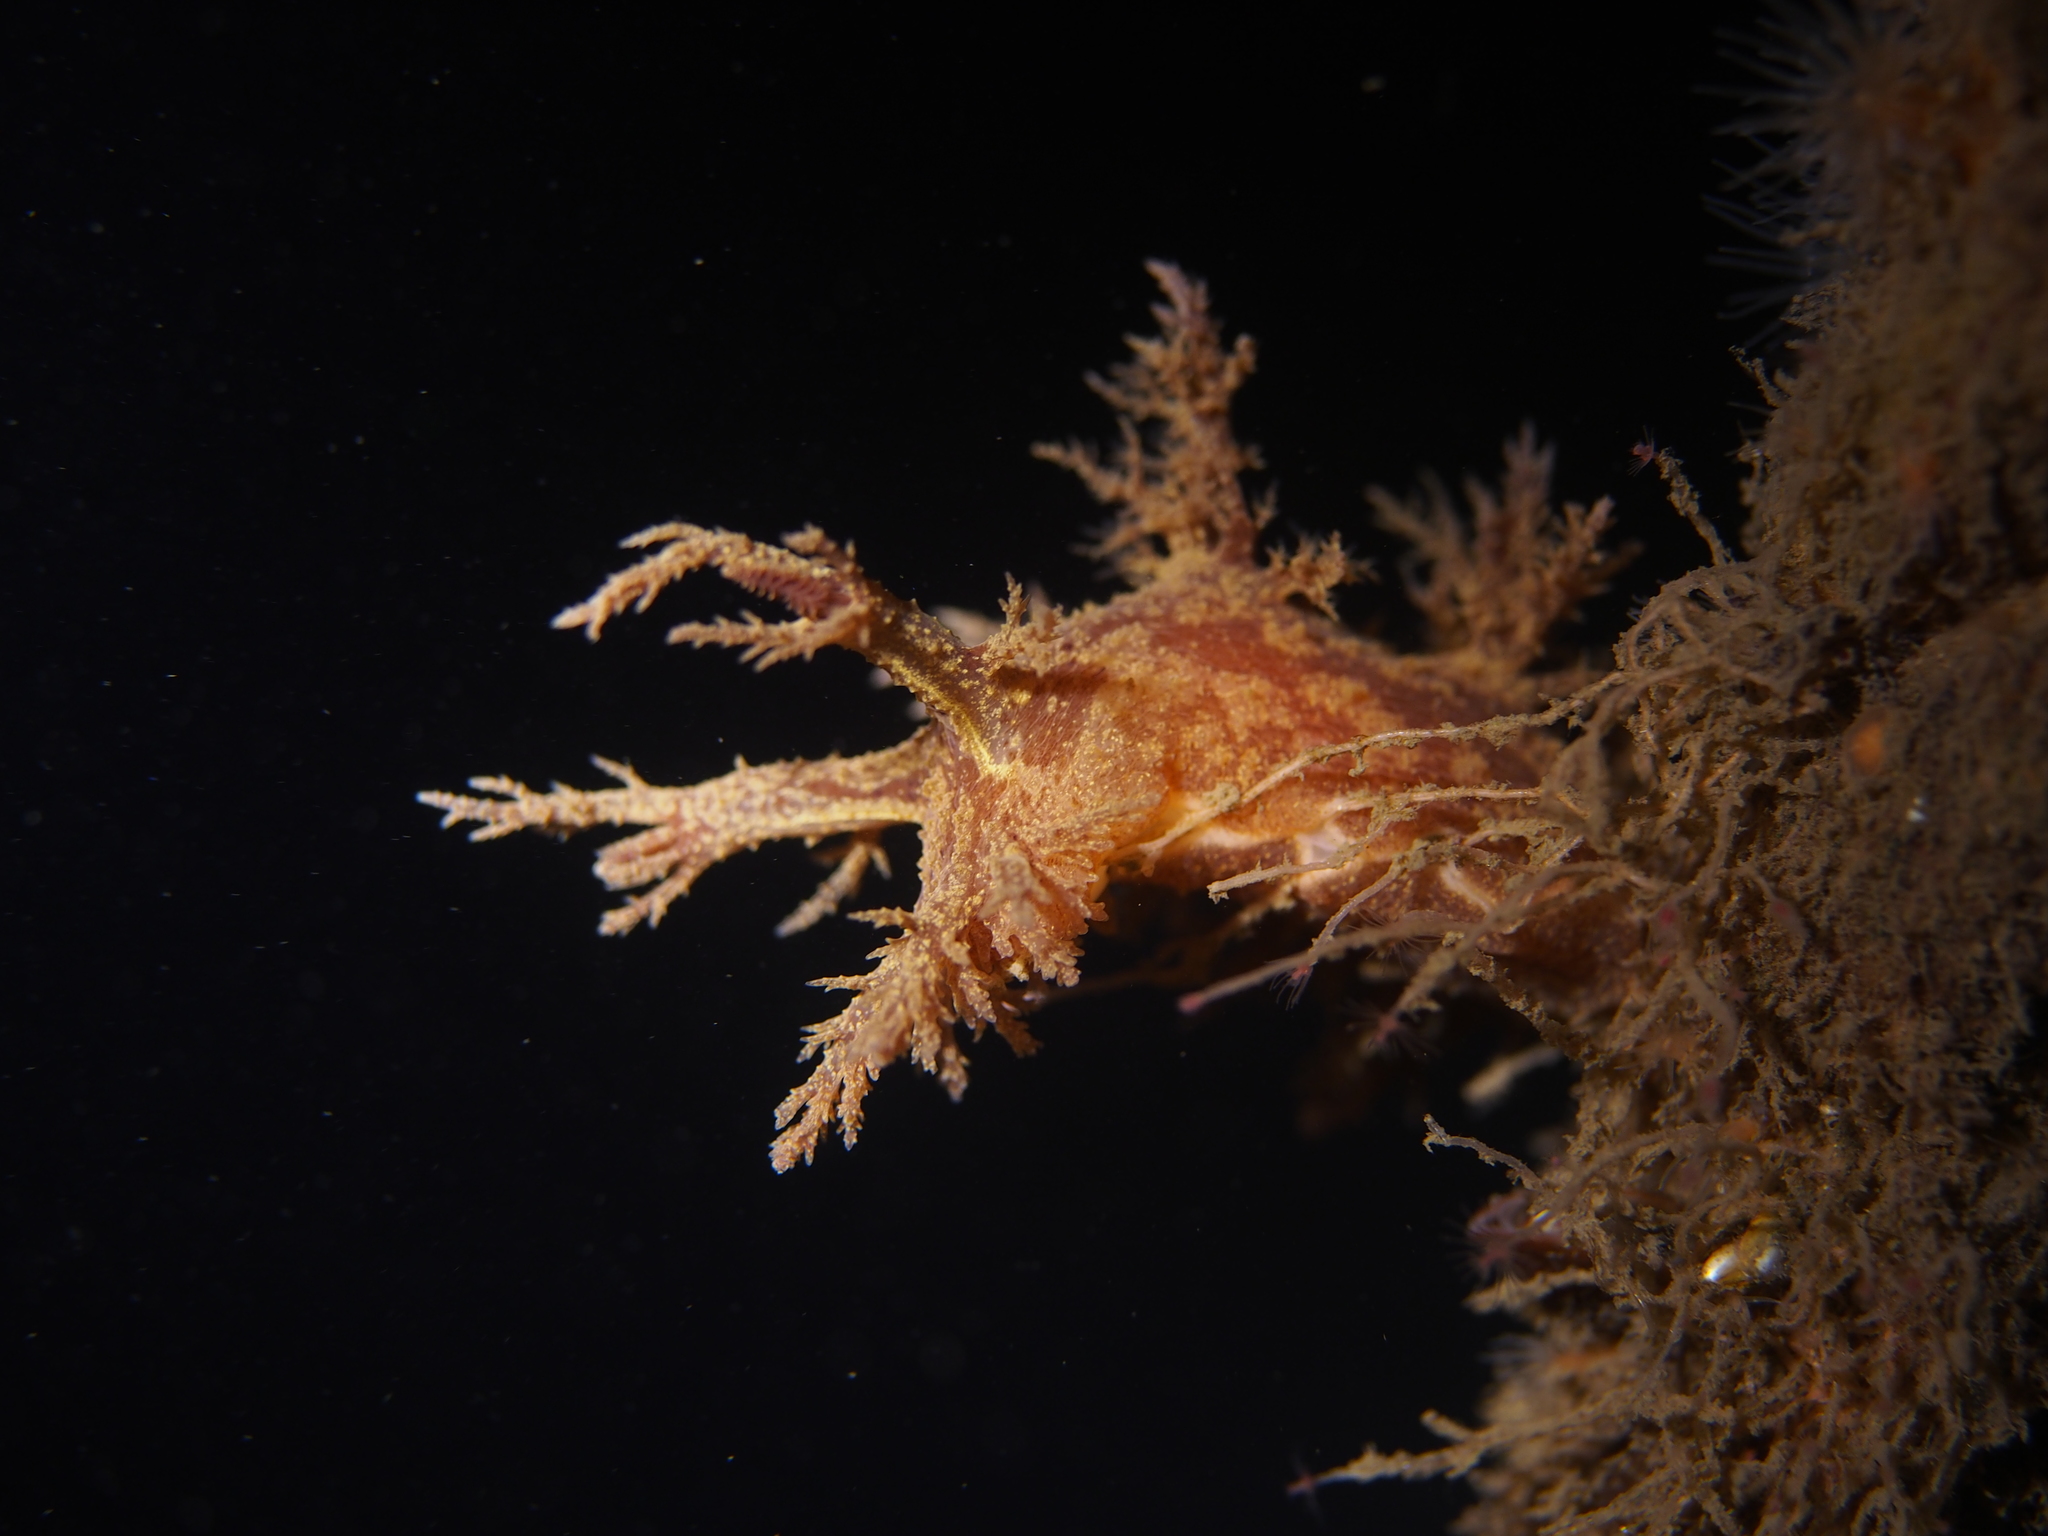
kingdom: Animalia
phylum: Mollusca
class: Gastropoda
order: Nudibranchia
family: Dendronotidae
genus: Dendronotus
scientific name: Dendronotus europaeus
